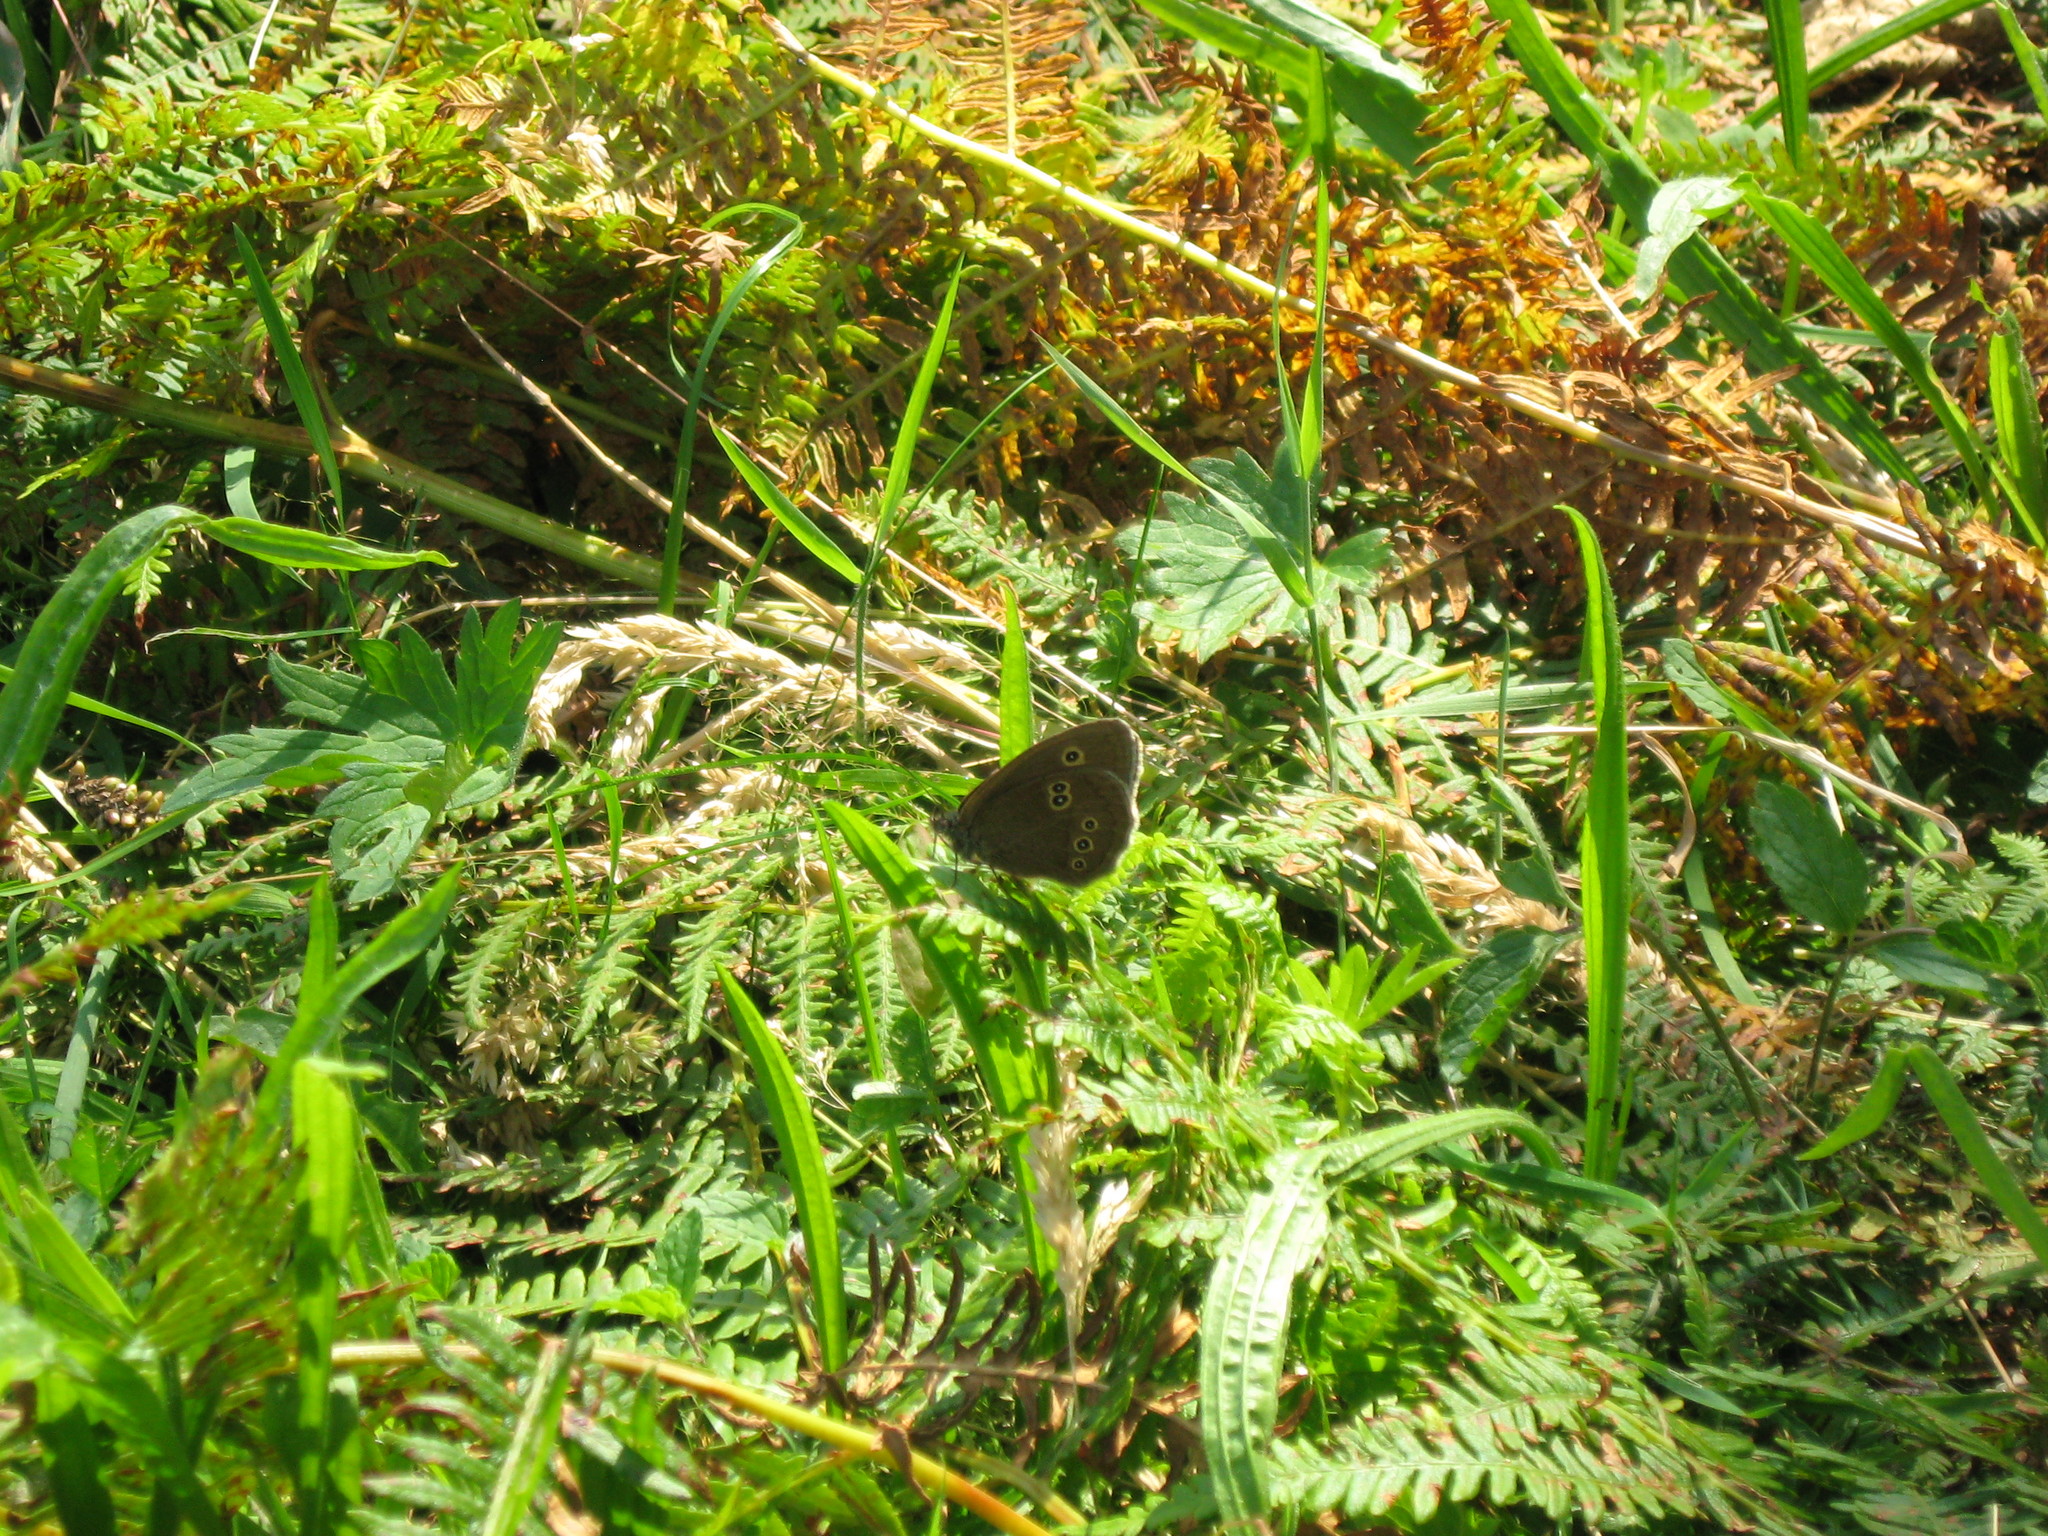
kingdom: Animalia
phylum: Arthropoda
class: Insecta
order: Lepidoptera
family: Nymphalidae
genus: Aphantopus
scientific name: Aphantopus hyperantus
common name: Ringlet
